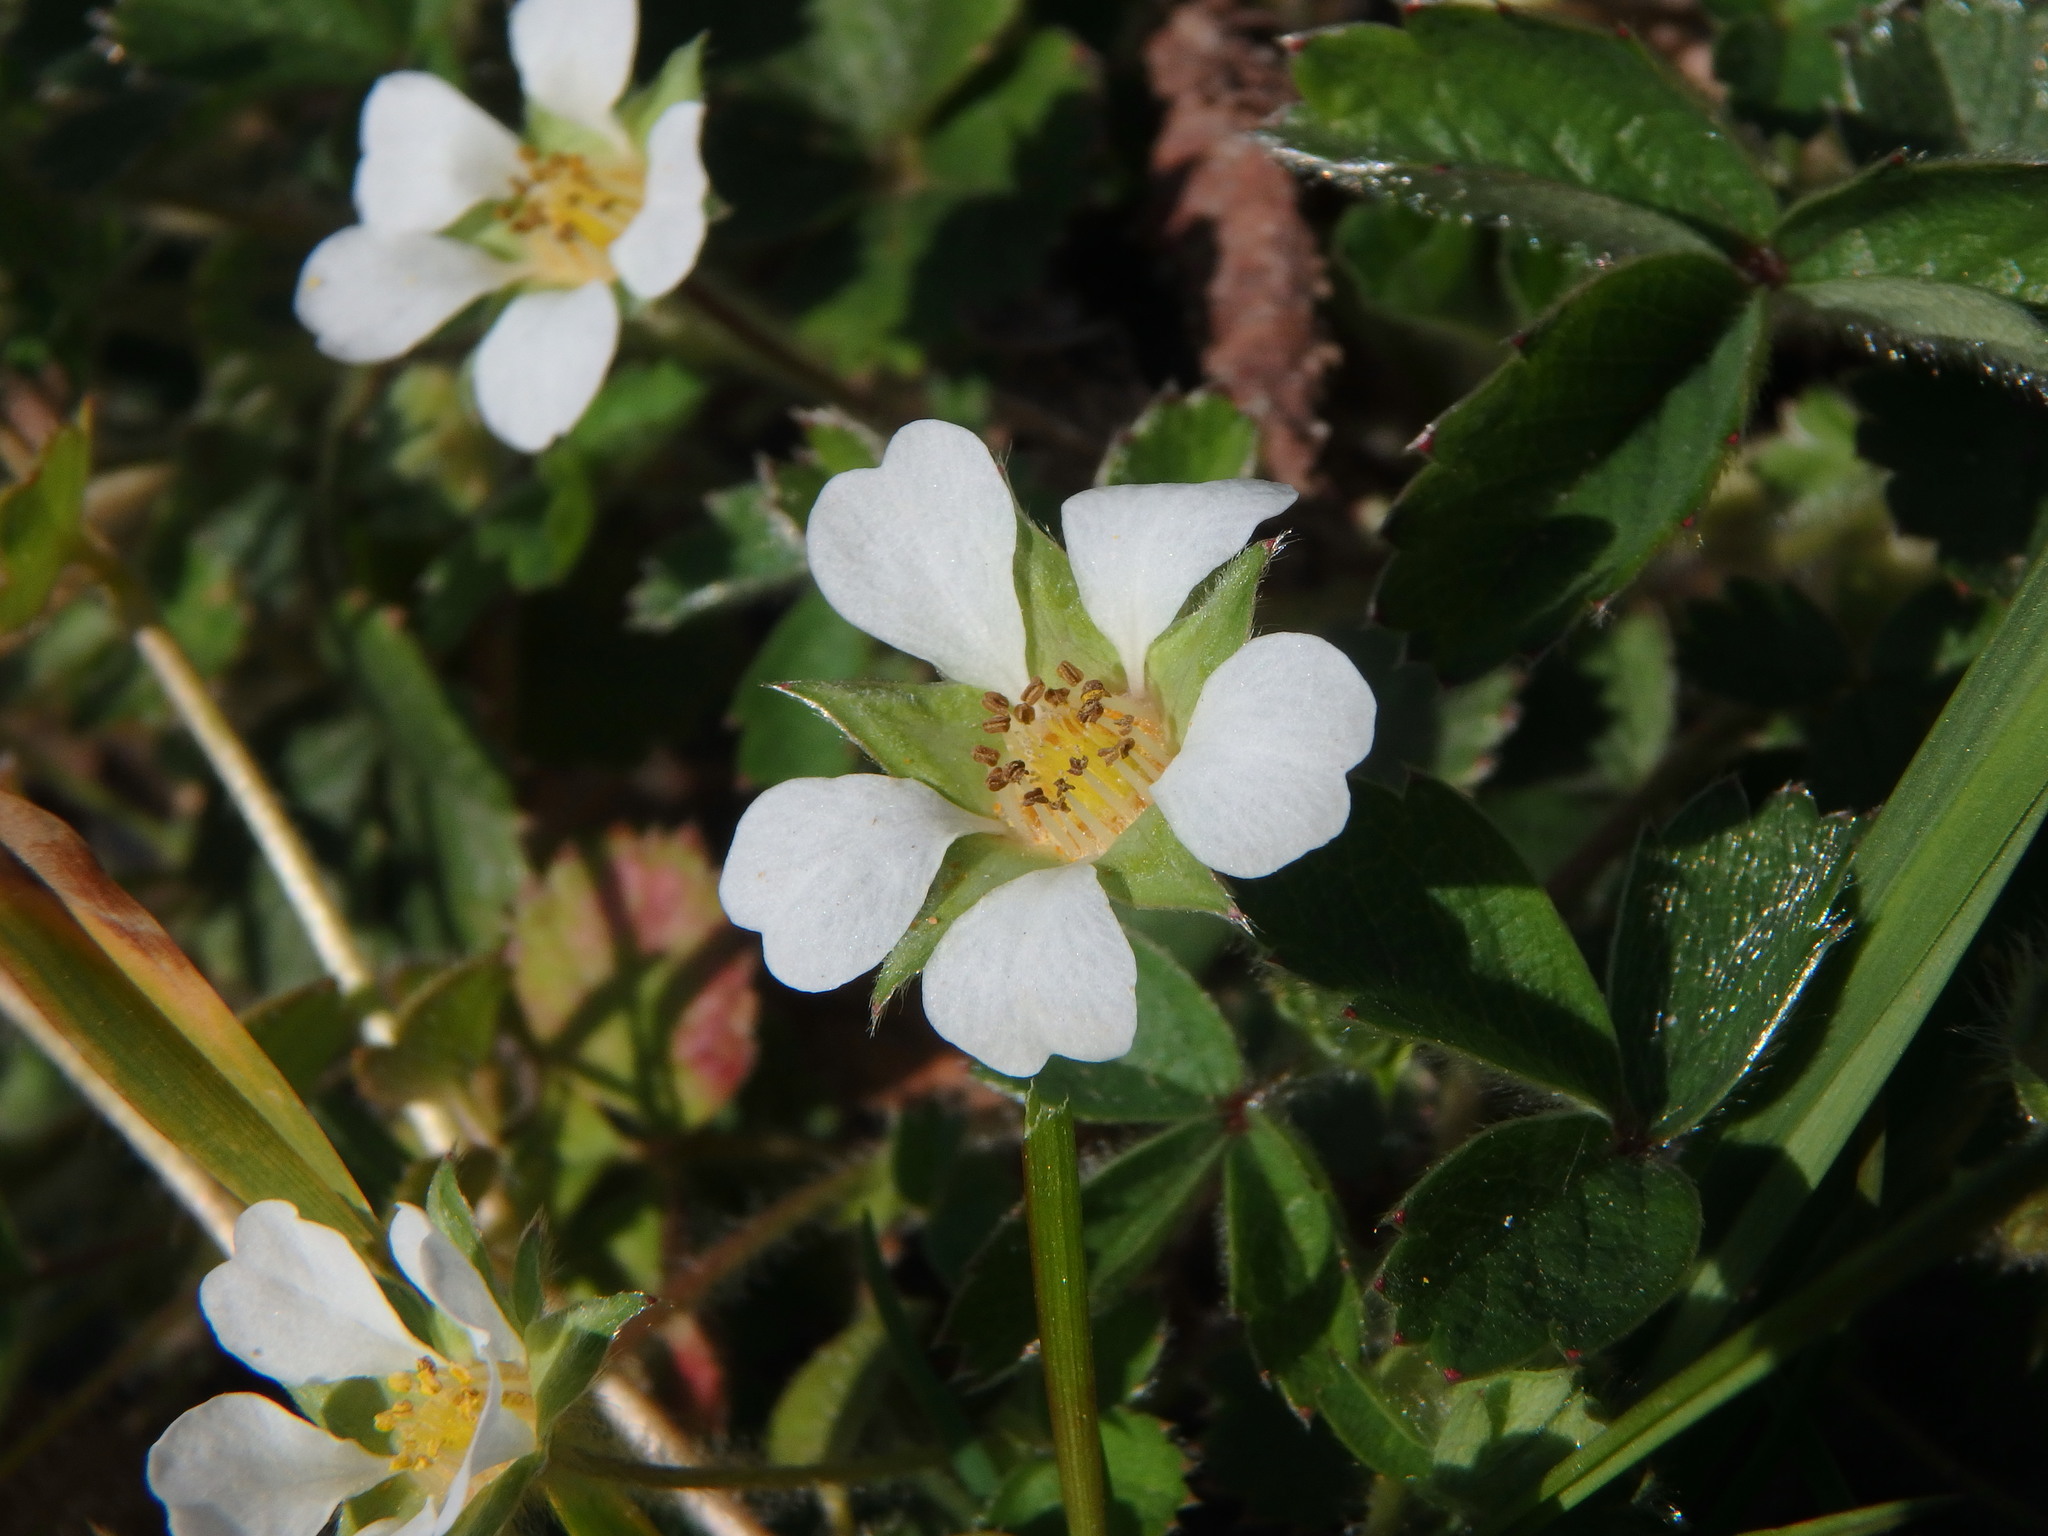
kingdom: Plantae
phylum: Tracheophyta
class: Magnoliopsida
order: Rosales
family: Rosaceae
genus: Potentilla
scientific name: Potentilla sterilis
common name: Barren strawberry
